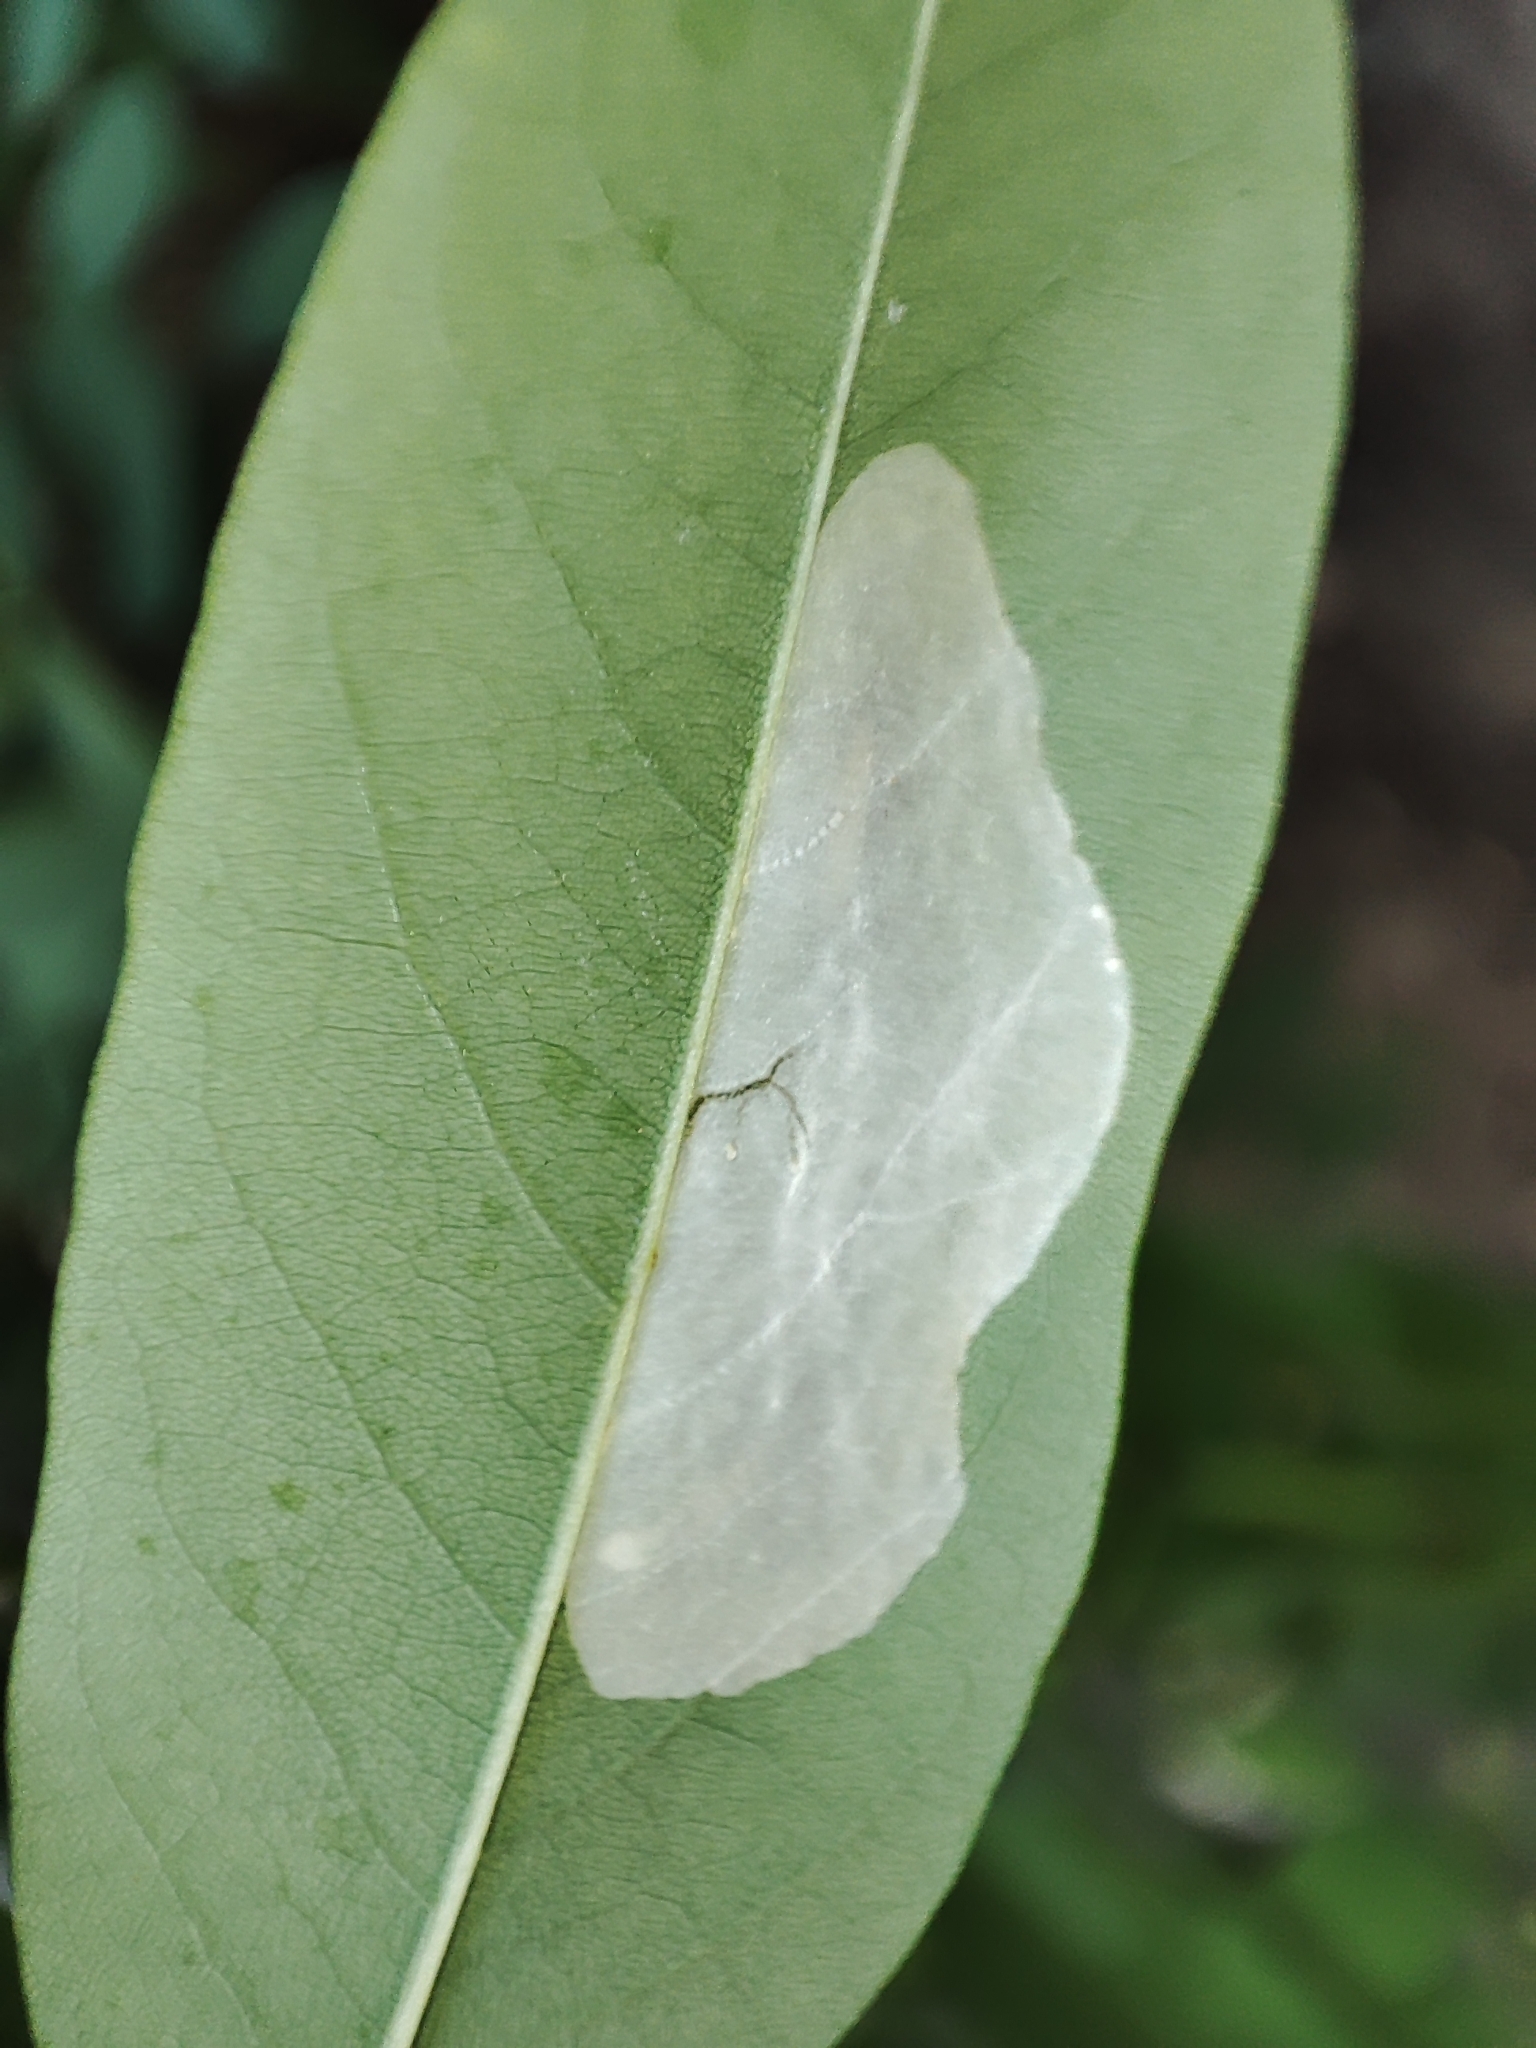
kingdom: Animalia
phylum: Arthropoda
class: Insecta
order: Lepidoptera
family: Gracillariidae
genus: Macrosaccus
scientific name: Macrosaccus robiniella
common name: Leaf blotch miner moth
